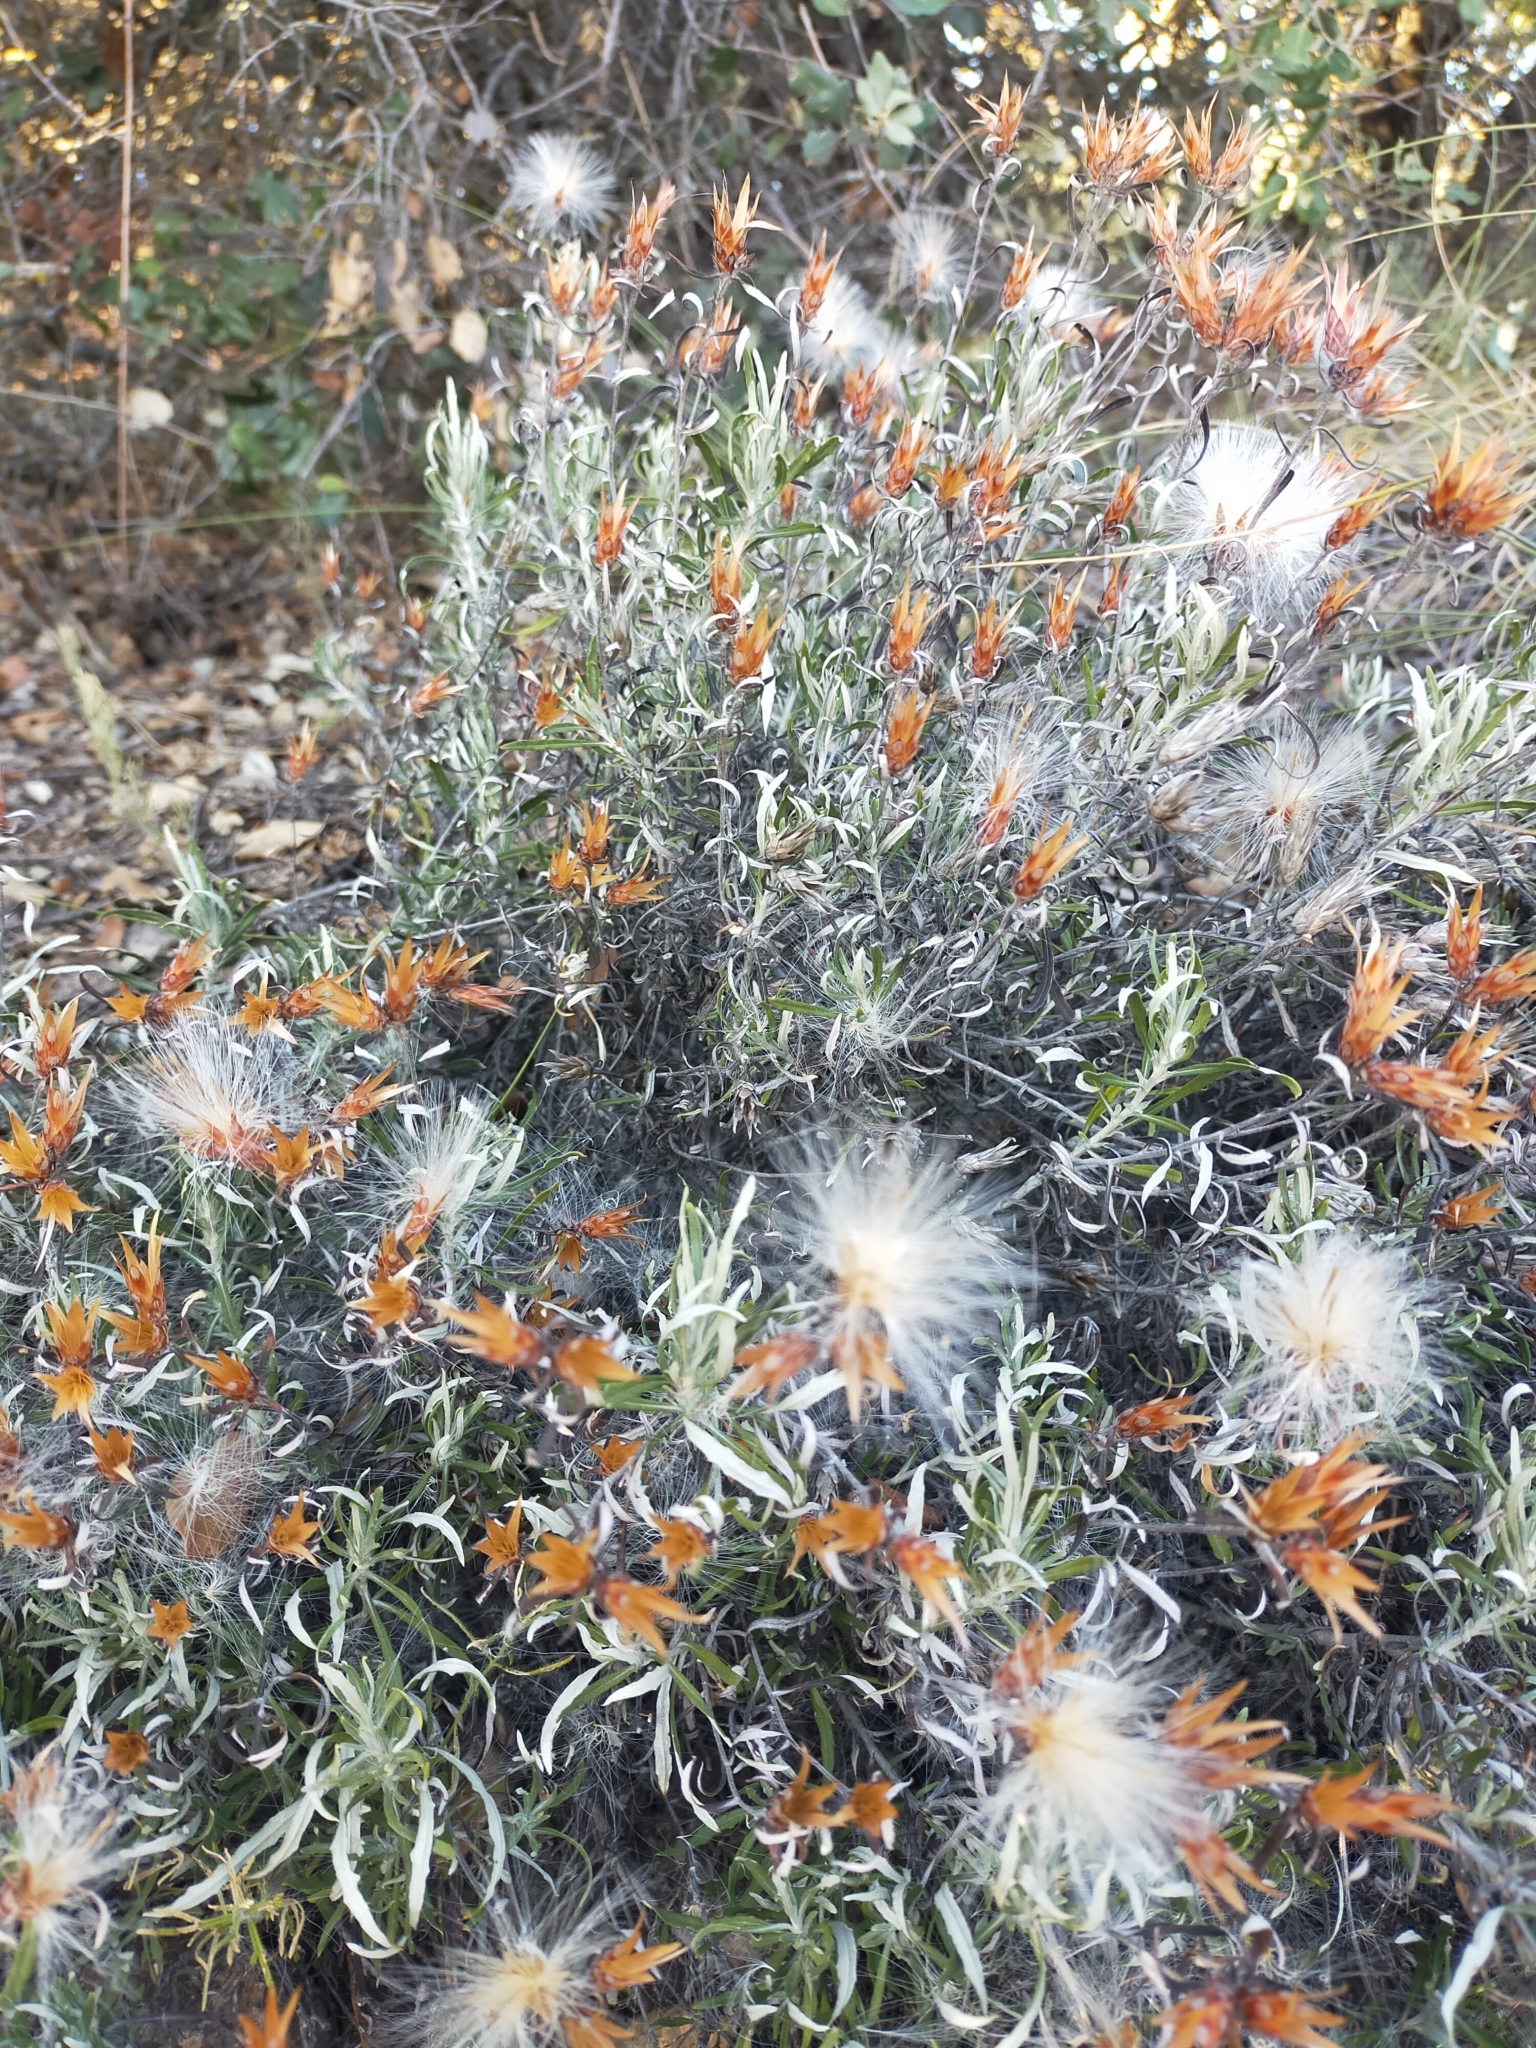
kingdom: Plantae
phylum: Tracheophyta
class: Magnoliopsida
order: Asterales
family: Asteraceae
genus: Staehelina
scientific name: Staehelina dubia
